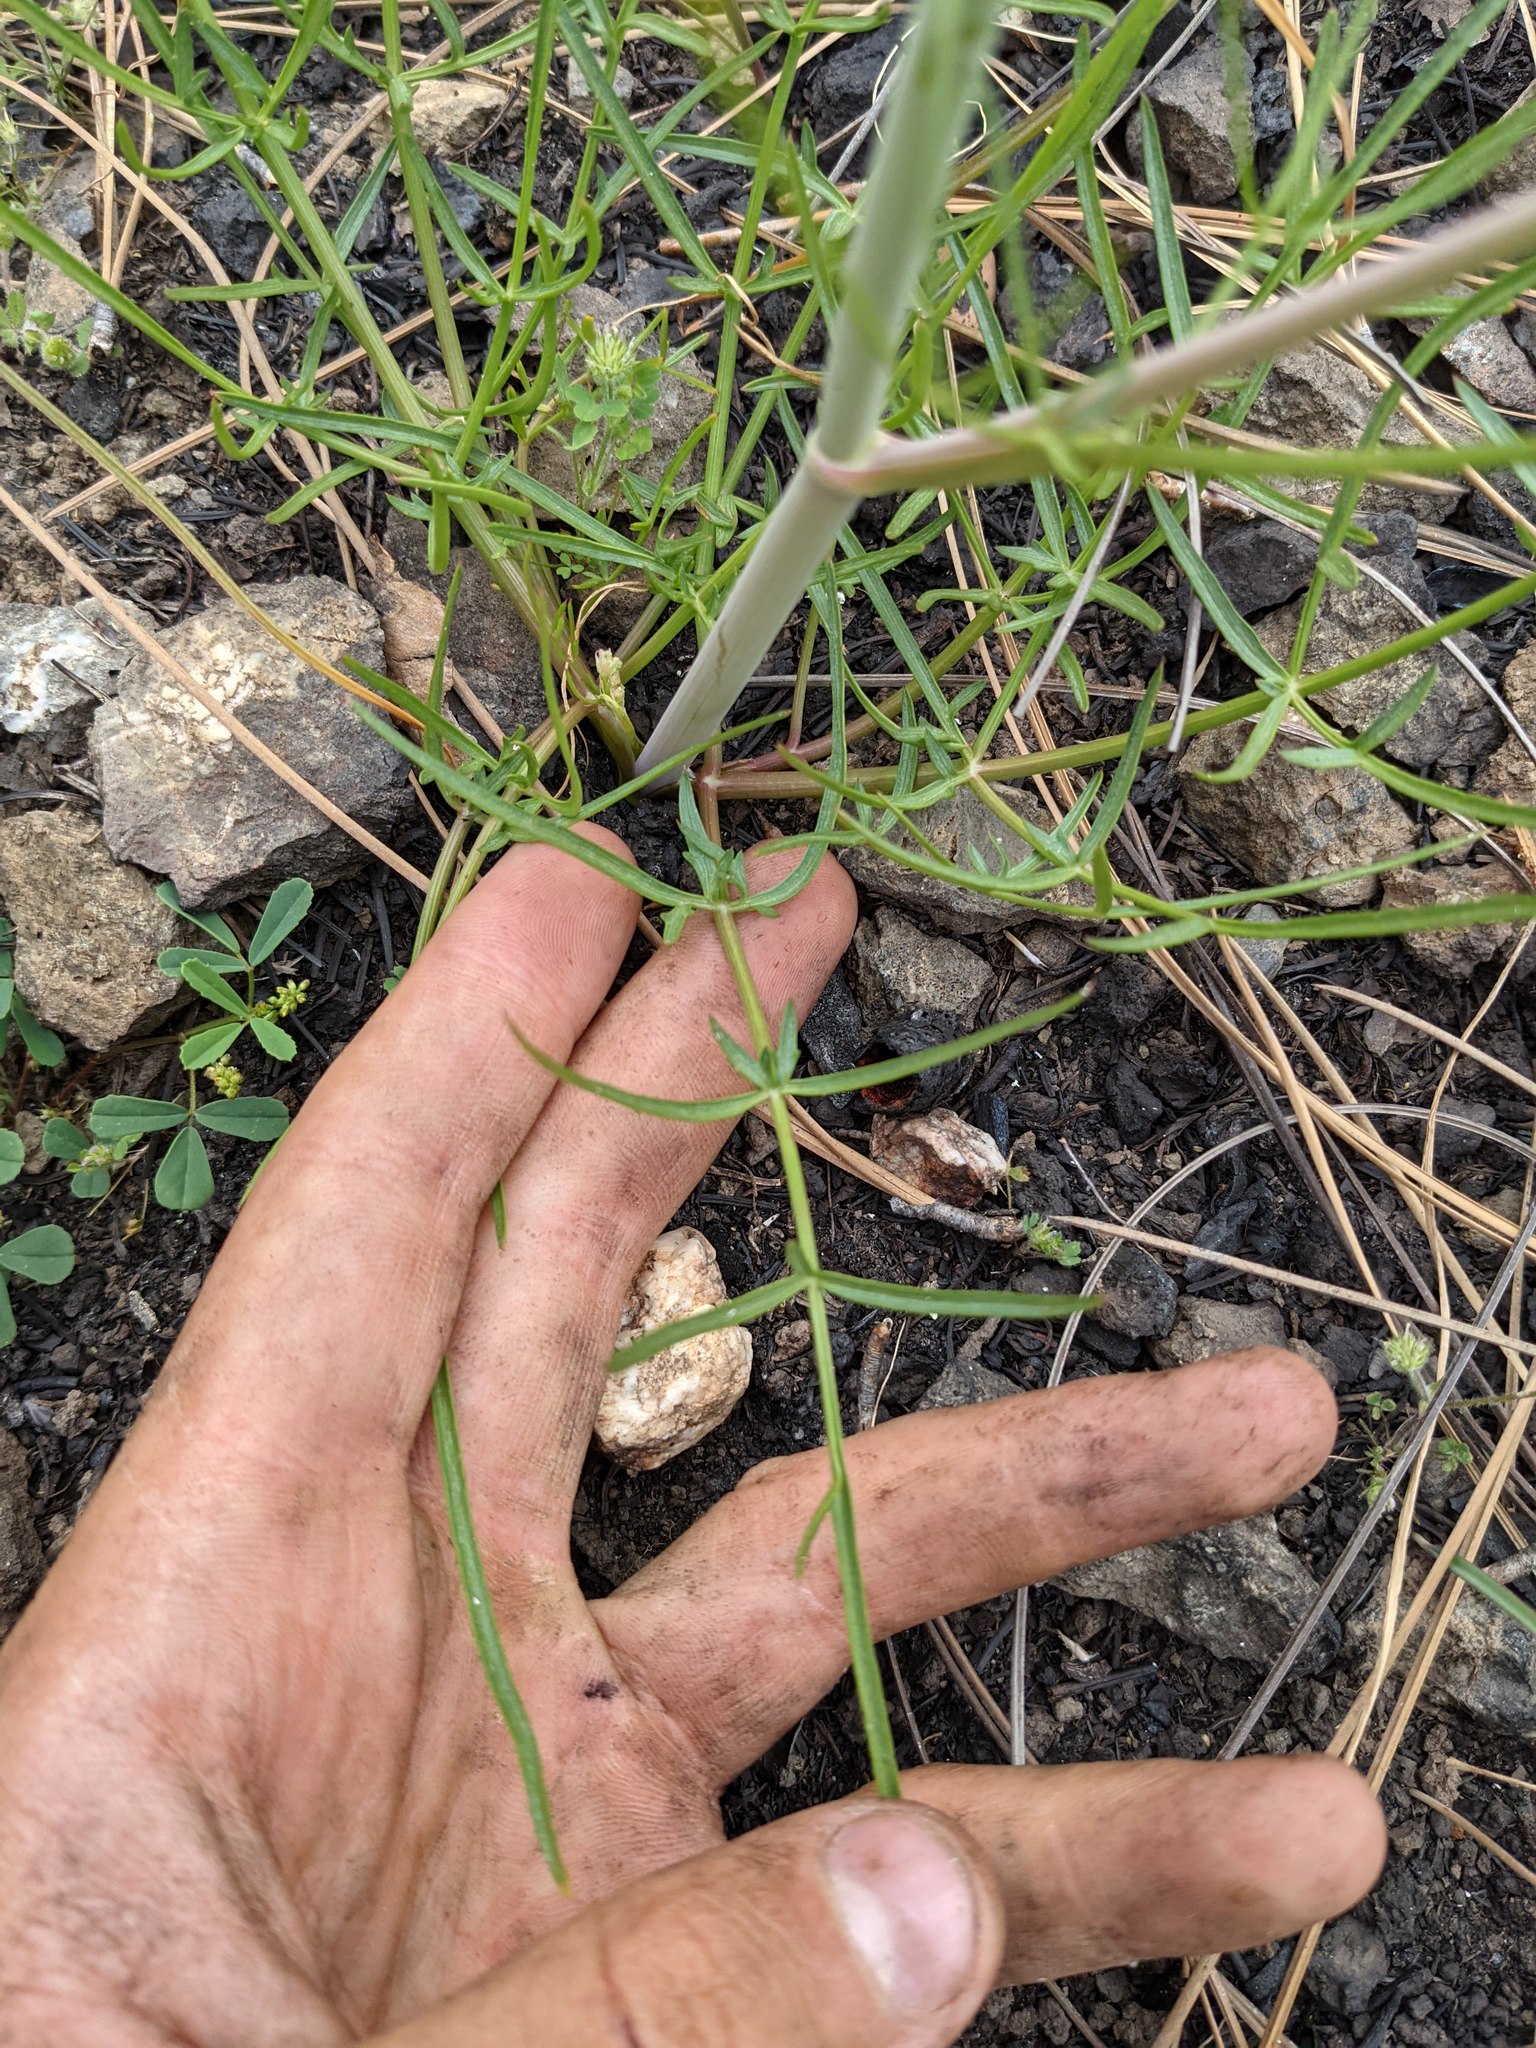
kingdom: Plantae
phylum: Tracheophyta
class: Magnoliopsida
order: Apiales
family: Apiaceae
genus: Perideridia
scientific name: Perideridia californica
